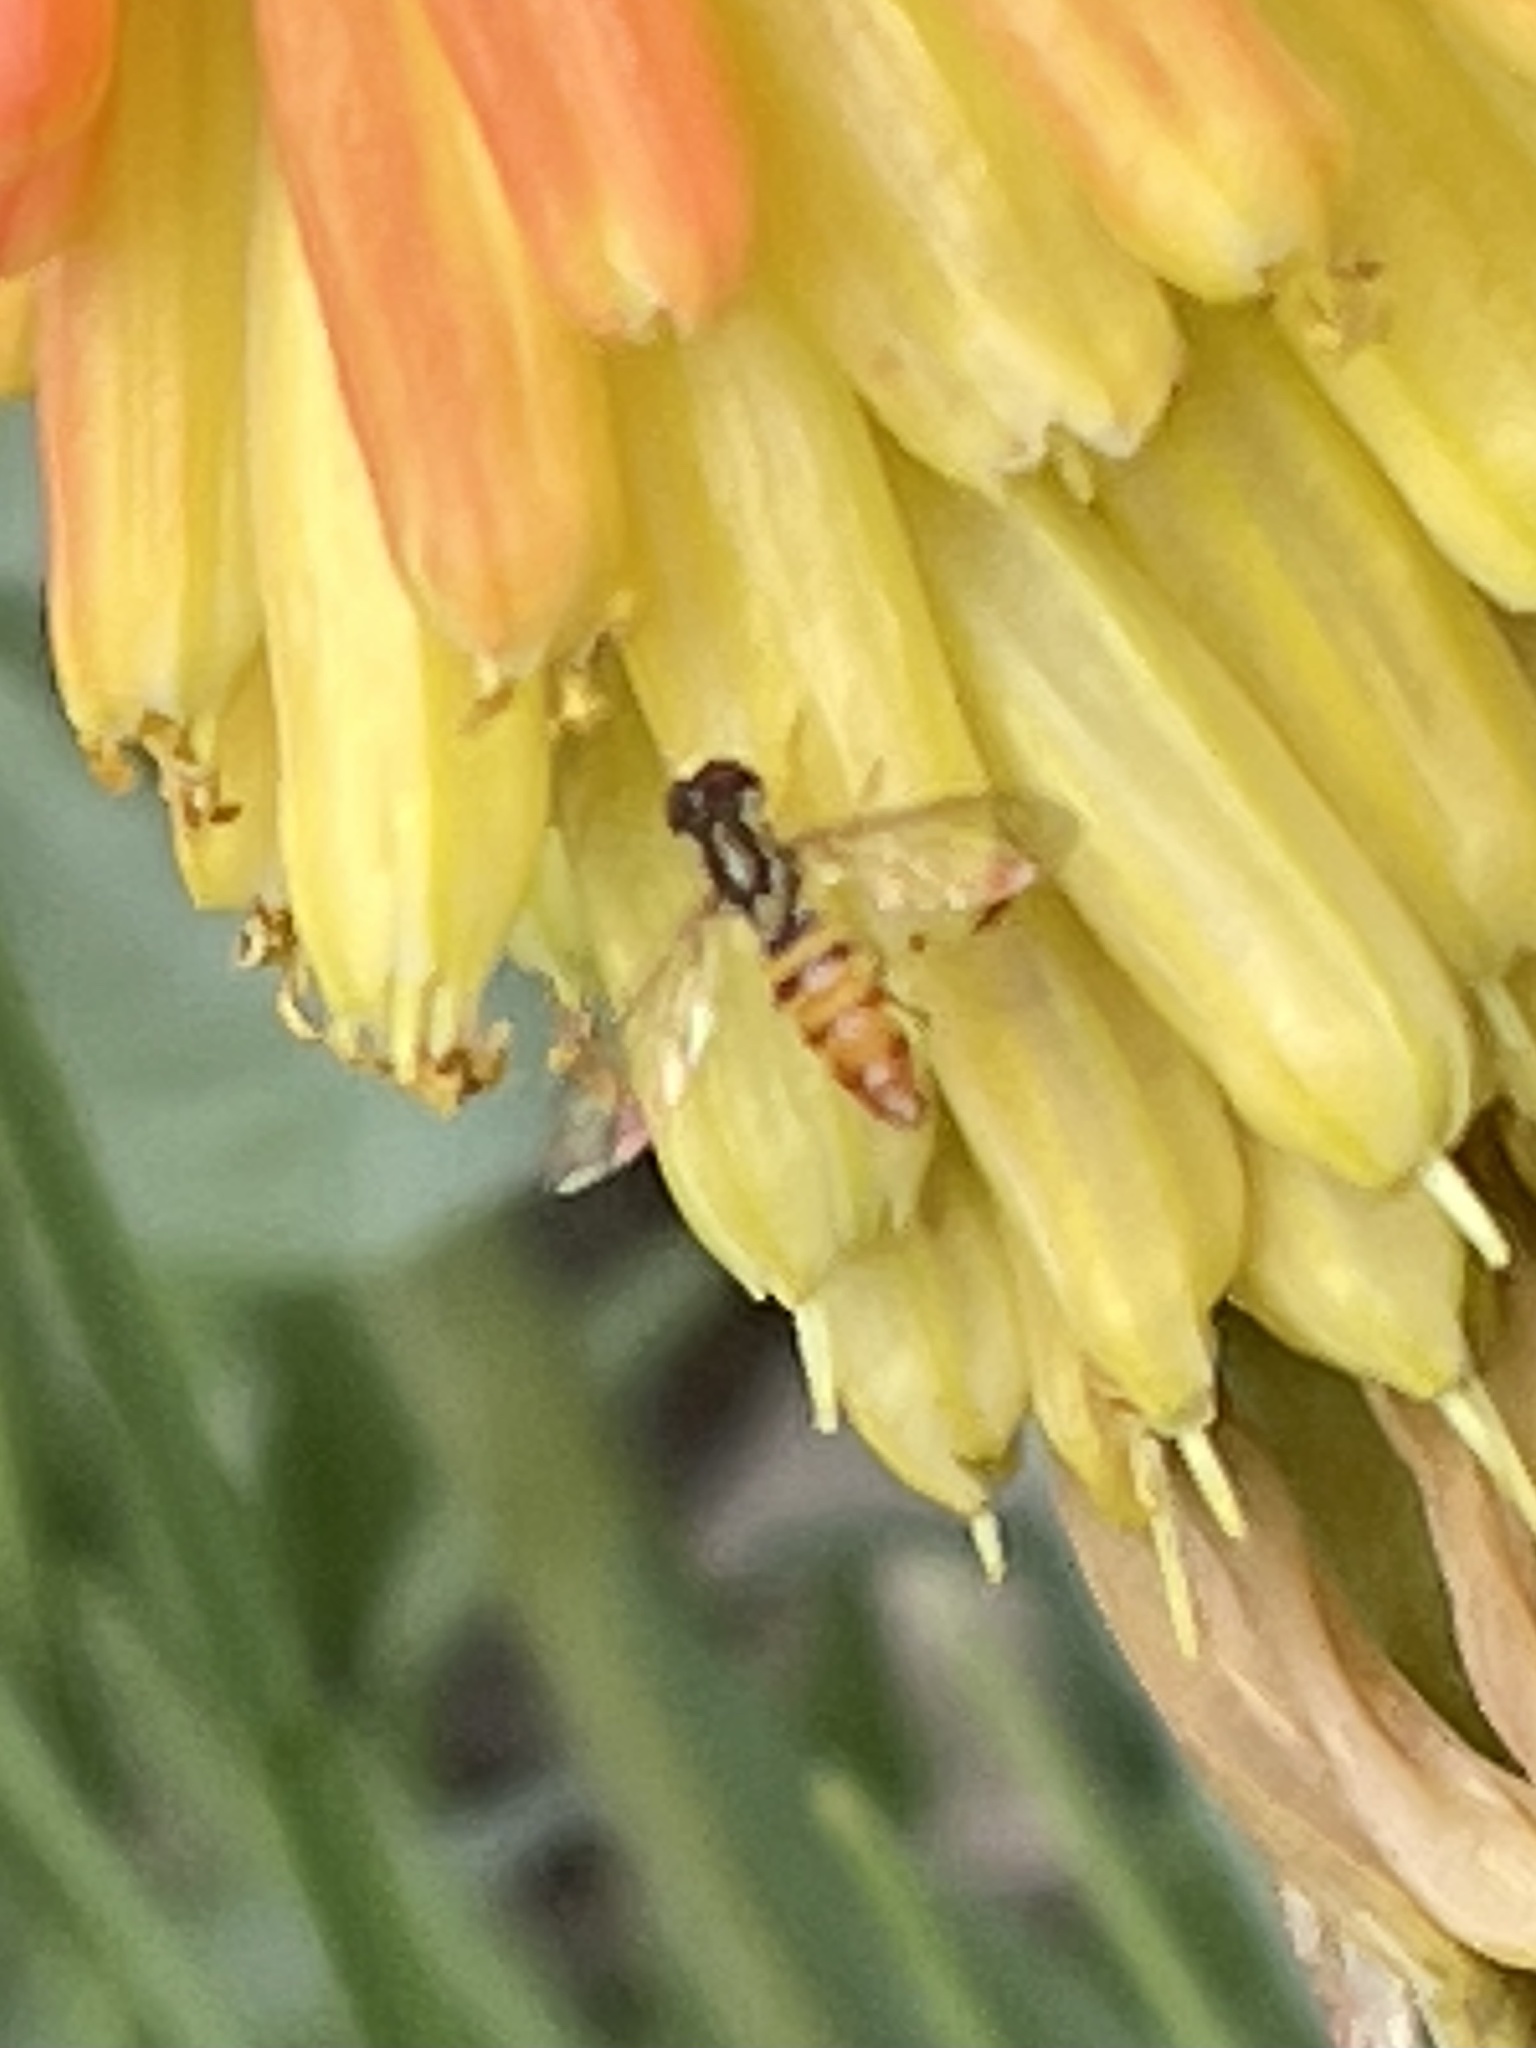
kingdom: Animalia
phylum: Arthropoda
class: Insecta
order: Diptera
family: Syrphidae
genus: Toxomerus
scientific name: Toxomerus politus
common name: Maize calligrapher
